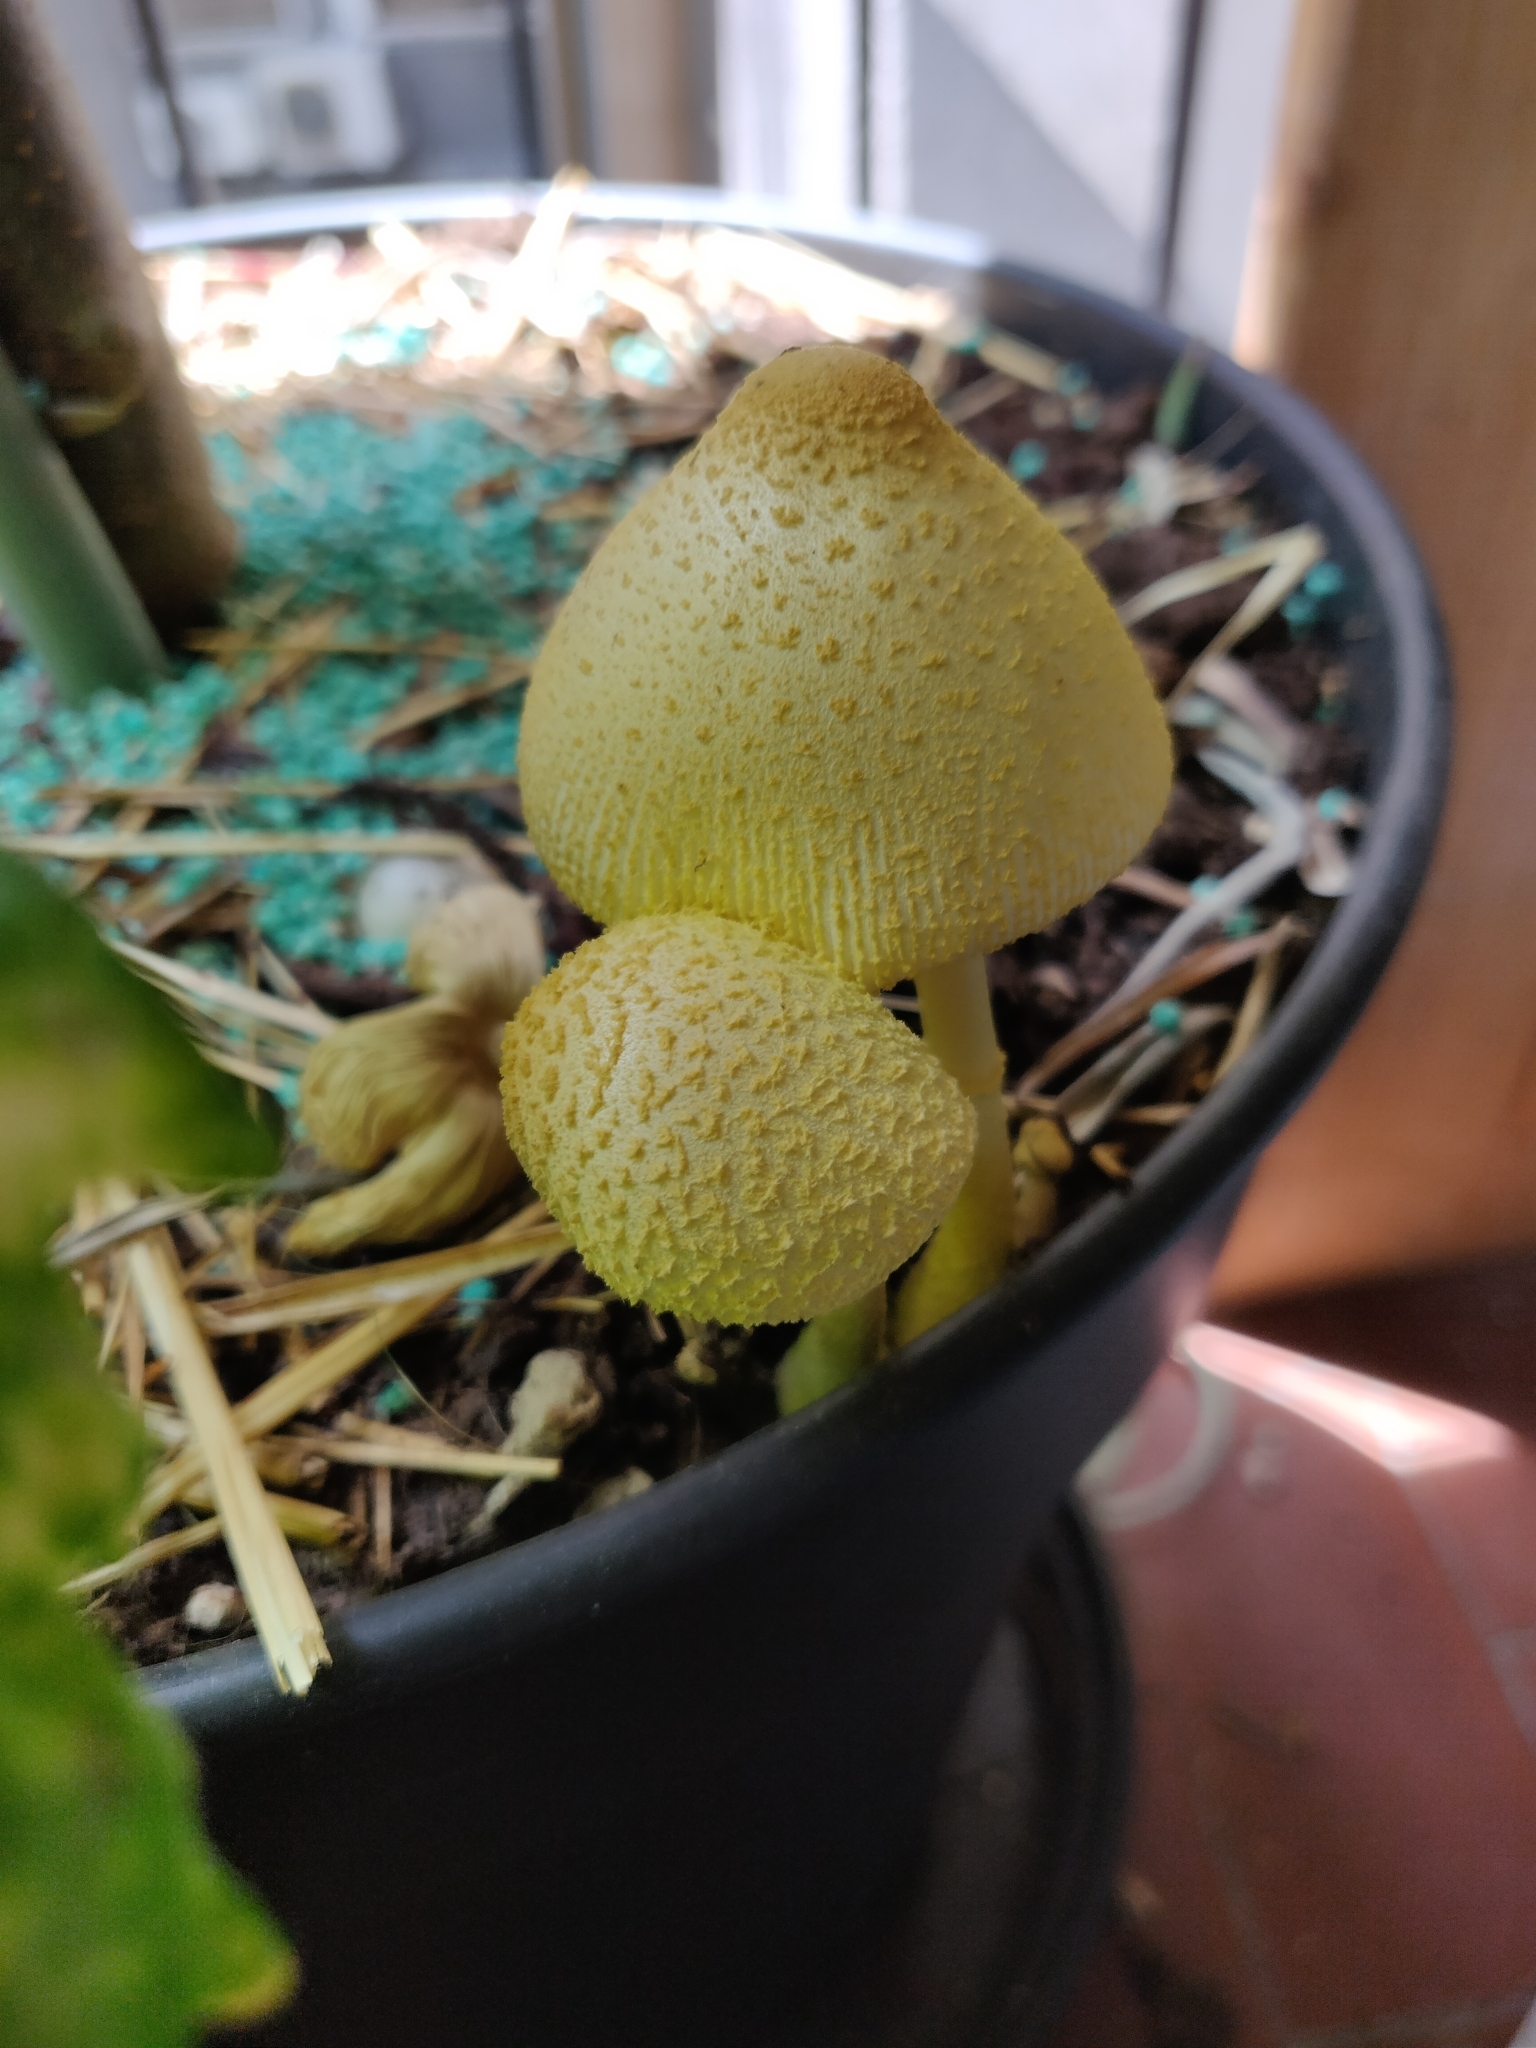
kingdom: Fungi
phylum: Basidiomycota
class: Agaricomycetes
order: Agaricales
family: Agaricaceae
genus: Leucocoprinus
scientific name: Leucocoprinus birnbaumii
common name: Plantpot dapperling
